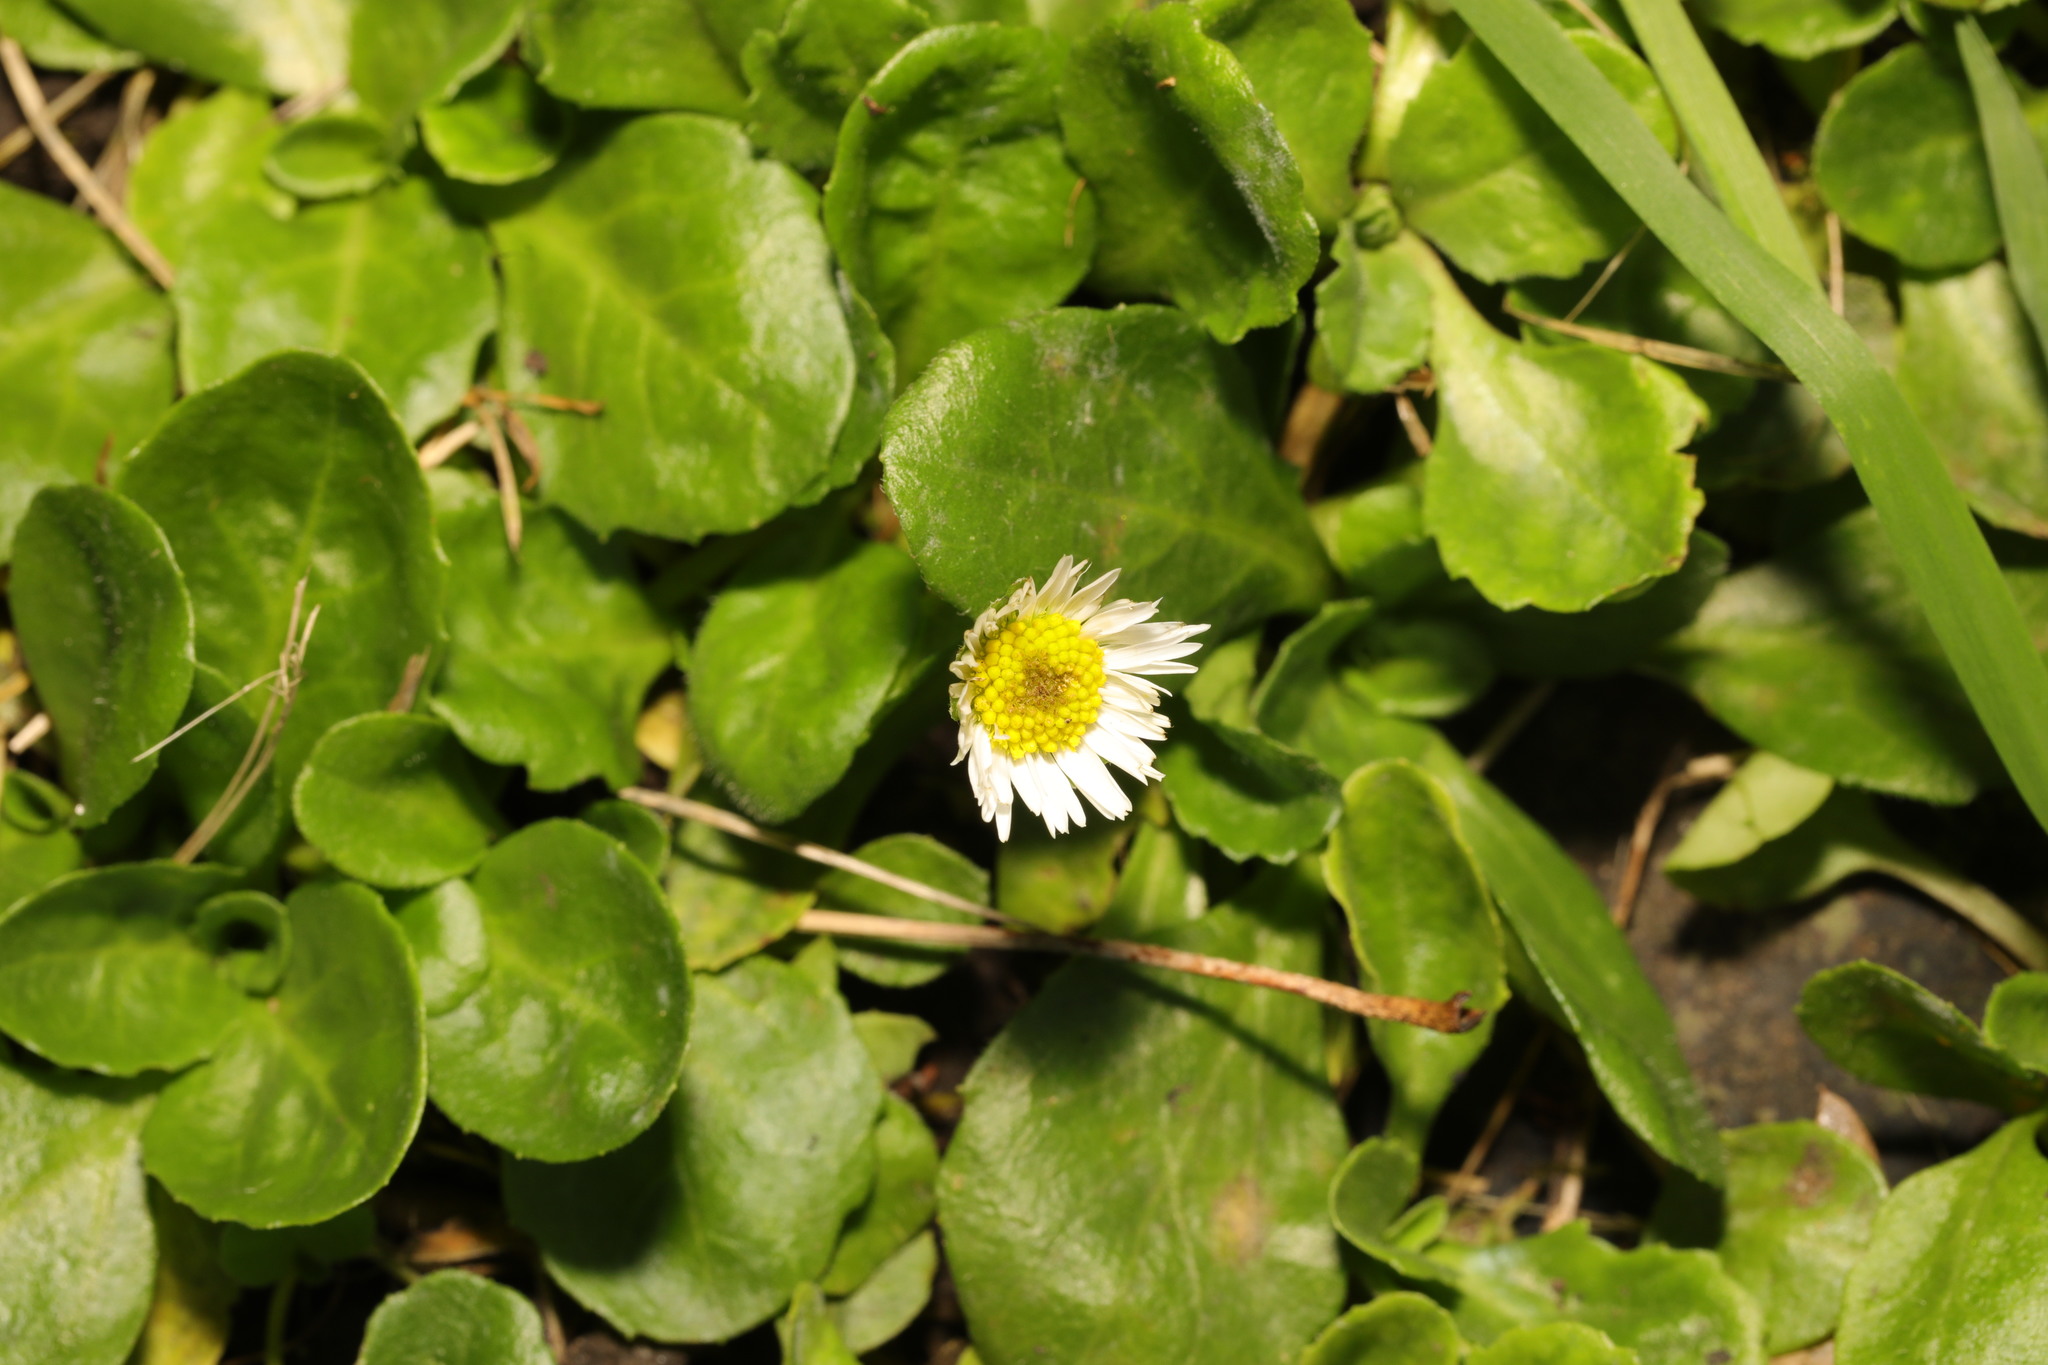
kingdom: Plantae
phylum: Tracheophyta
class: Magnoliopsida
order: Asterales
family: Asteraceae
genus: Bellis
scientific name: Bellis perennis
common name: Lawndaisy
